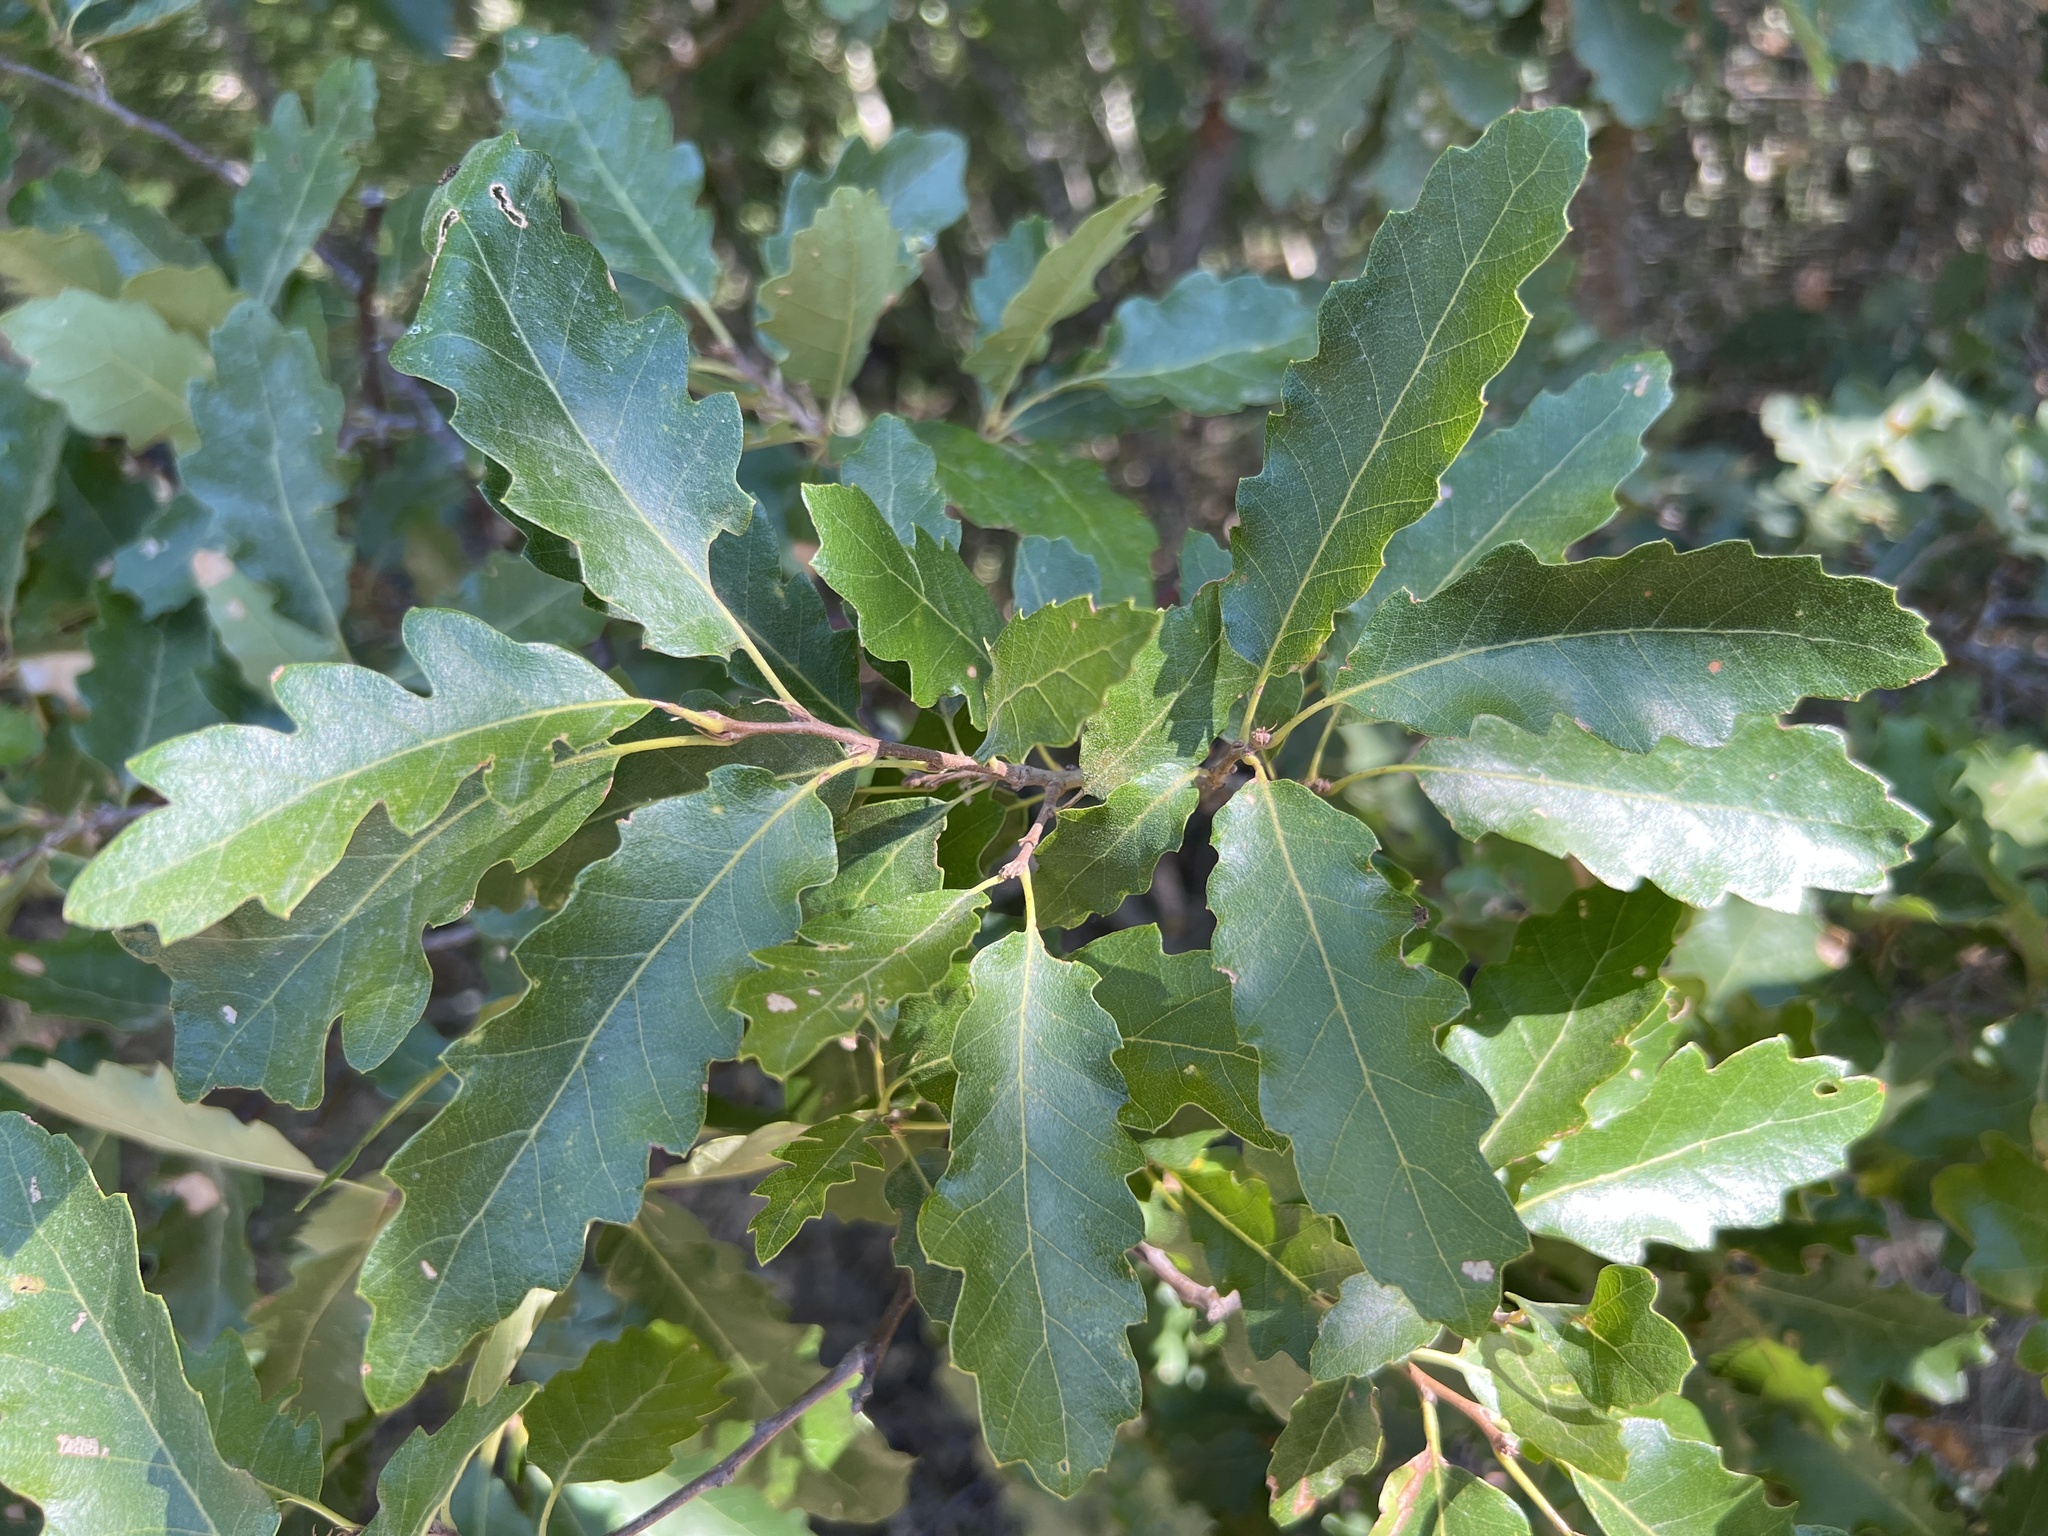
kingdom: Plantae
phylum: Tracheophyta
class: Magnoliopsida
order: Fagales
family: Fagaceae
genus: Quercus
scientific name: Quercus cerris
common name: Turkey oak
